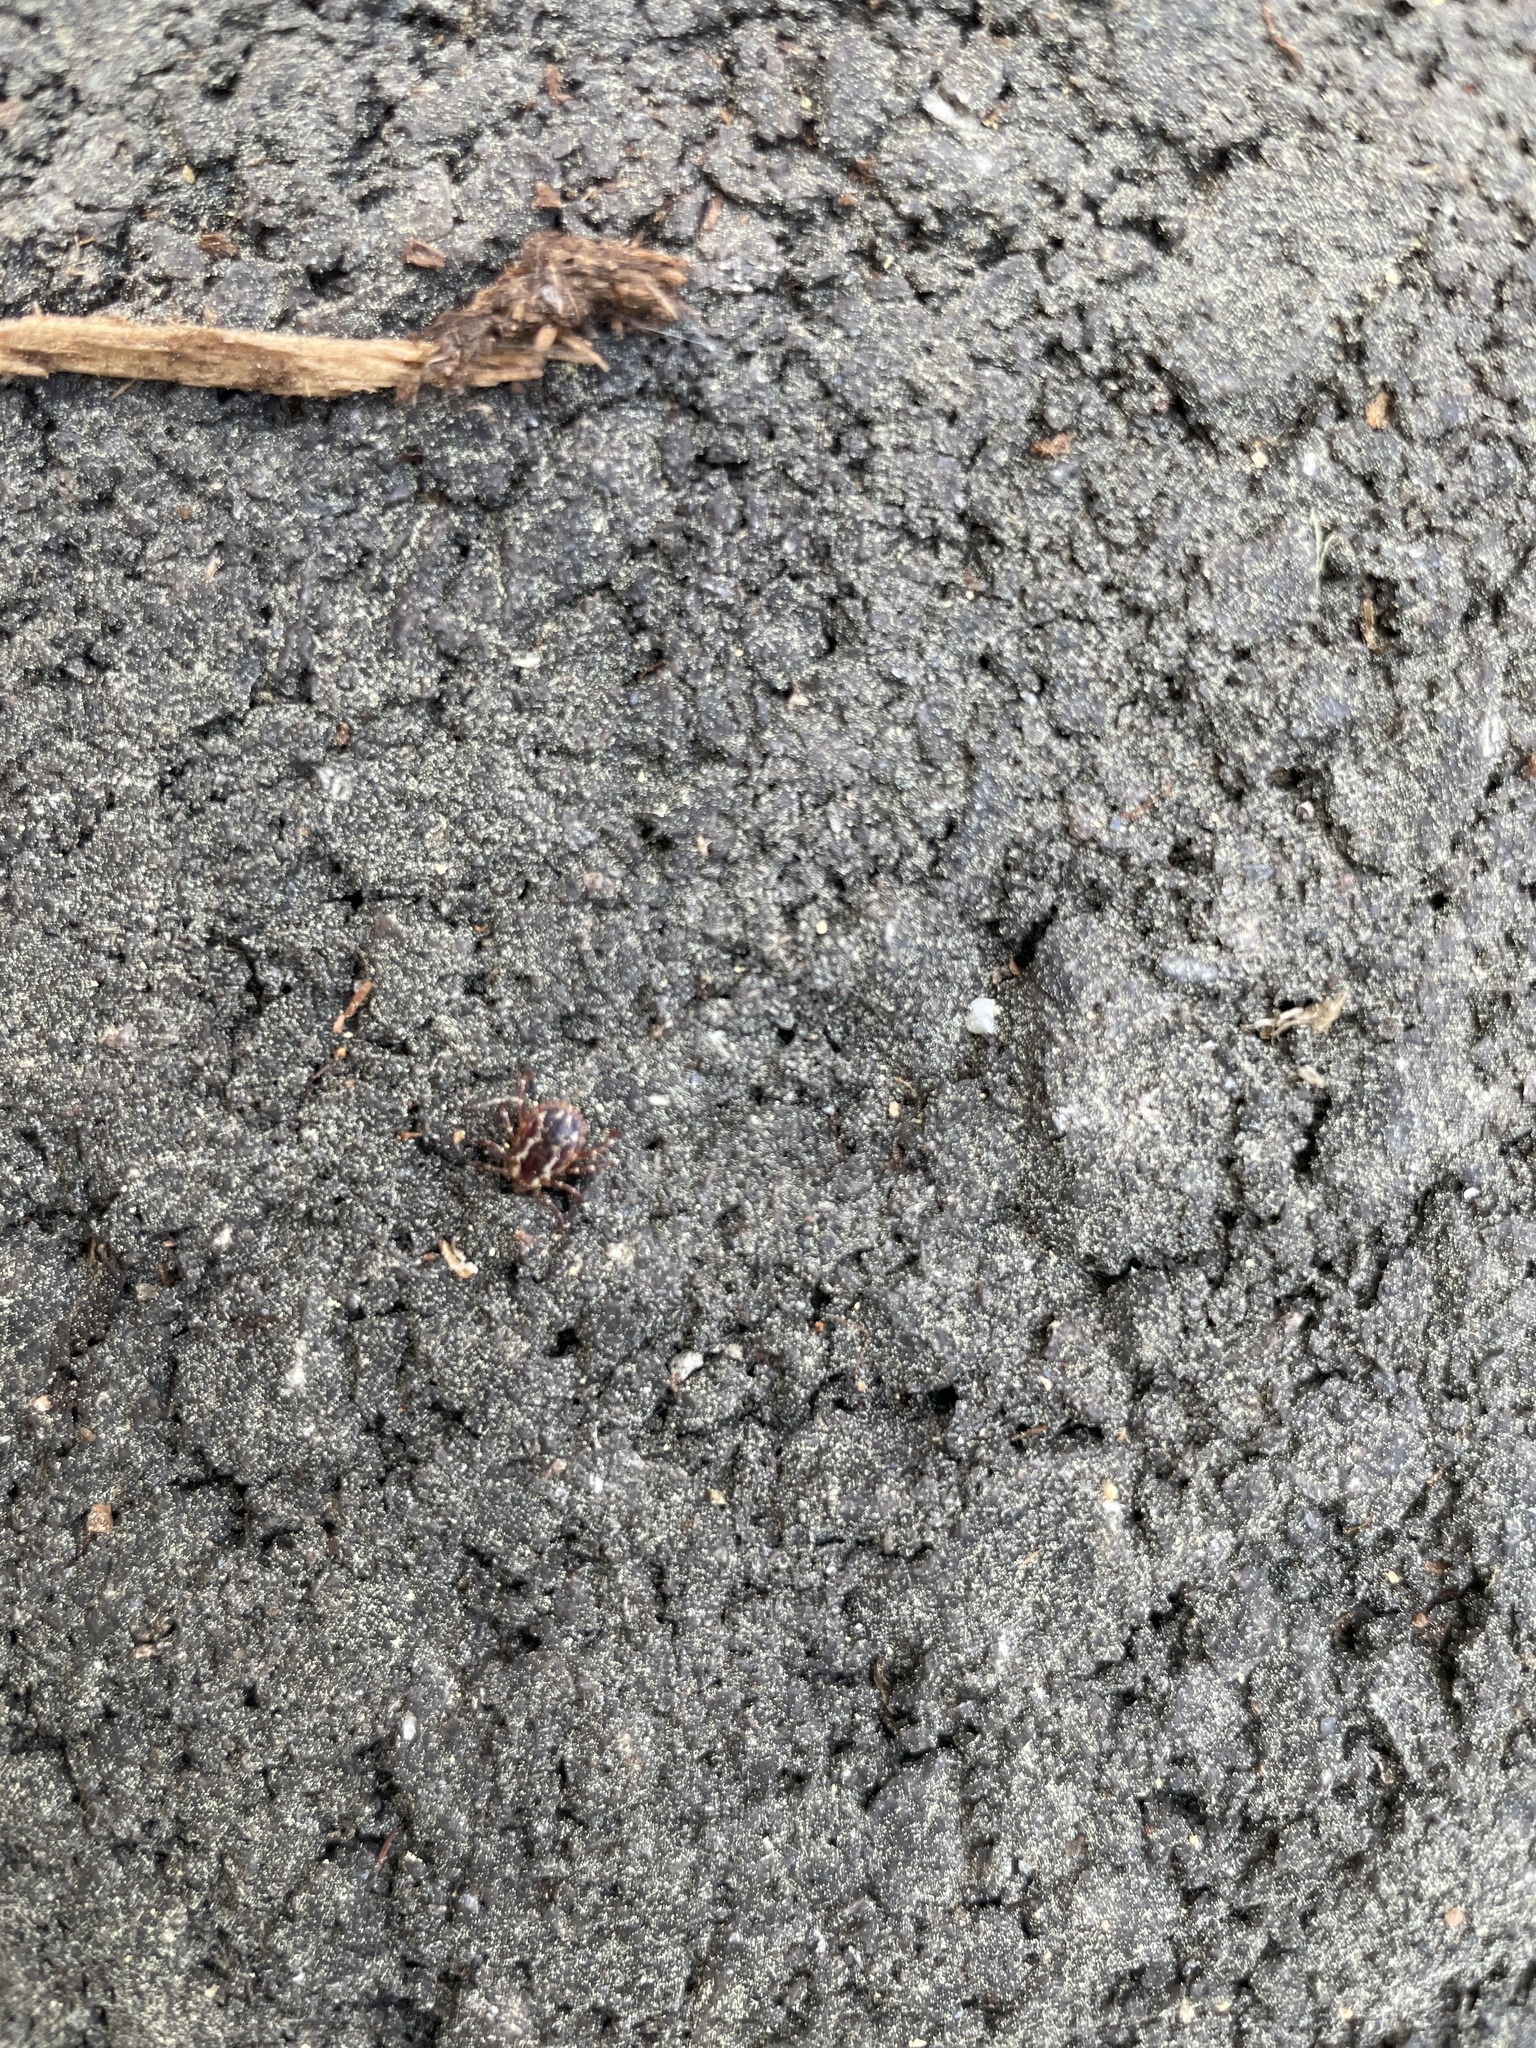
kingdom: Animalia
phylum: Arthropoda
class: Arachnida
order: Ixodida
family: Ixodidae
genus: Dermacentor
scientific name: Dermacentor variabilis
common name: American dog tick
